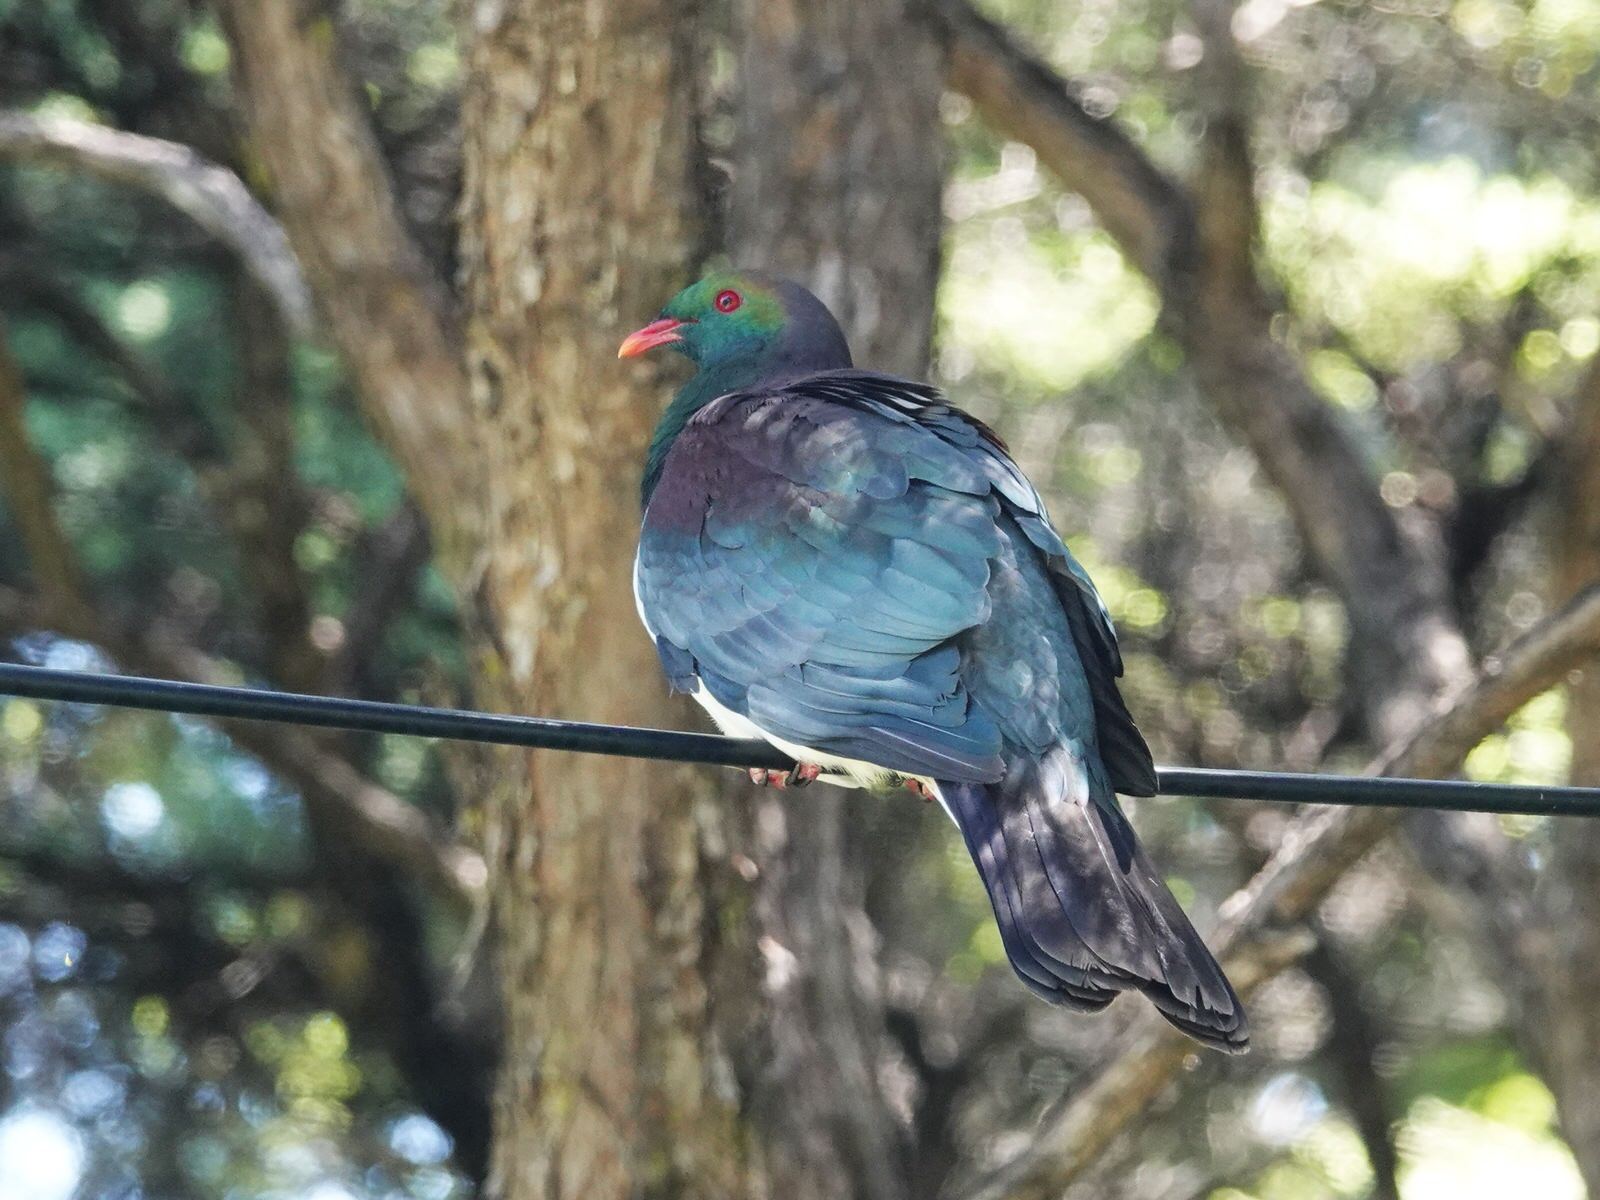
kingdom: Animalia
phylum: Chordata
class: Aves
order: Columbiformes
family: Columbidae
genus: Hemiphaga
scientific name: Hemiphaga novaeseelandiae
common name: New zealand pigeon
